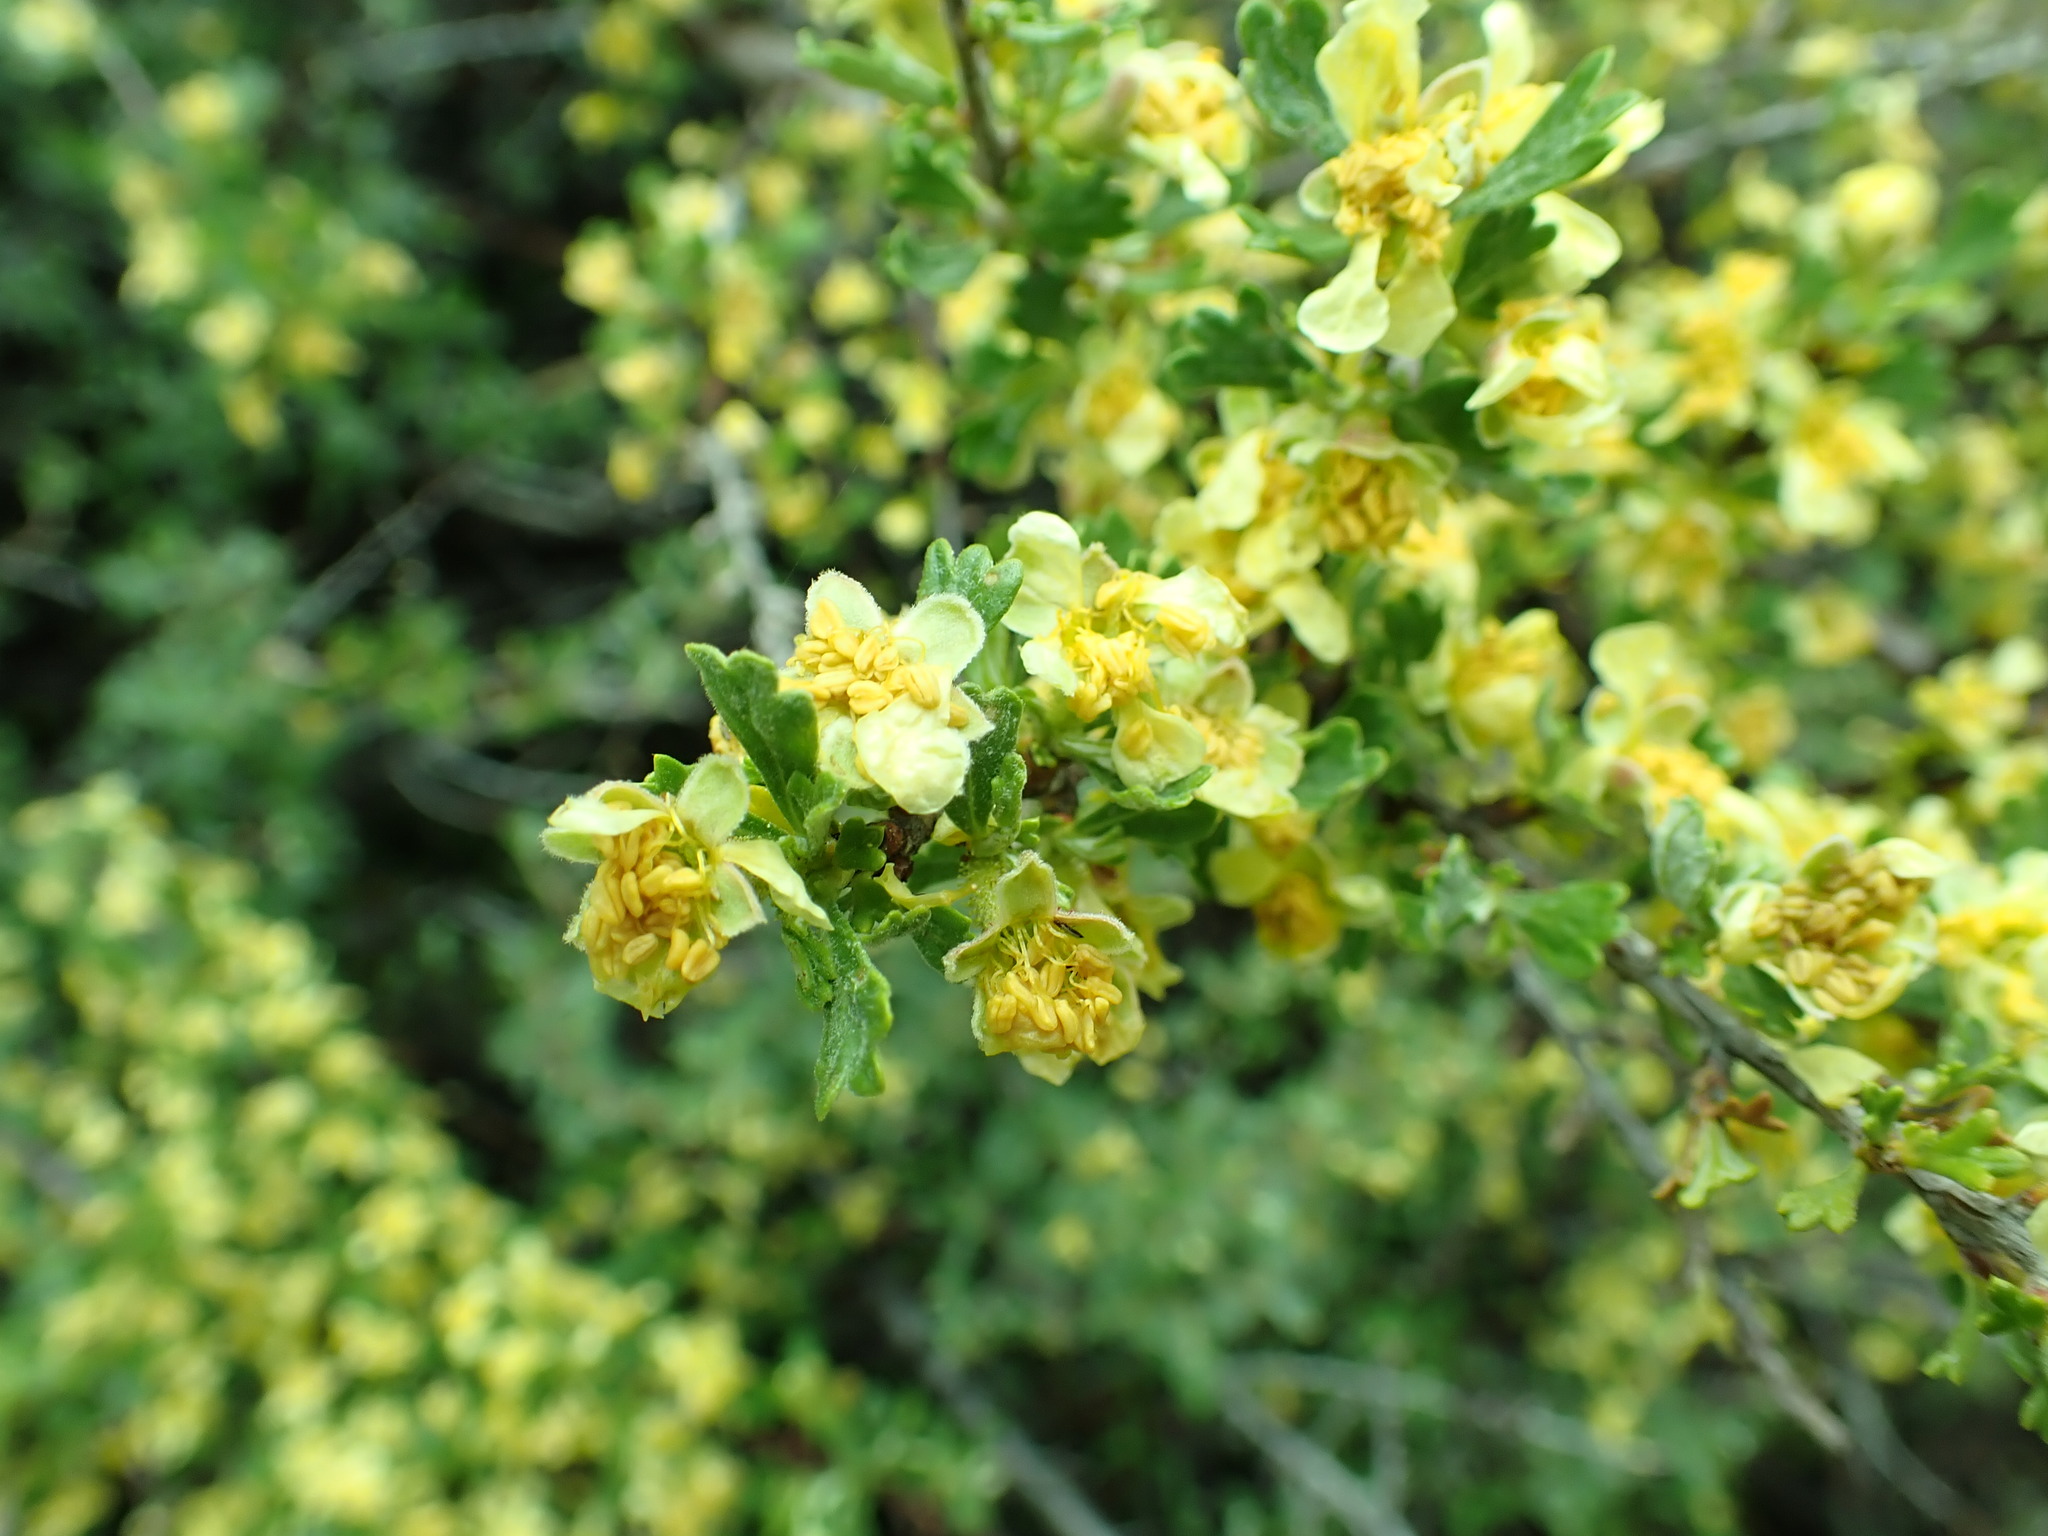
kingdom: Plantae
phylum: Tracheophyta
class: Magnoliopsida
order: Rosales
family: Rosaceae
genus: Purshia
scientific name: Purshia tridentata
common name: Antelope bitterbrush
